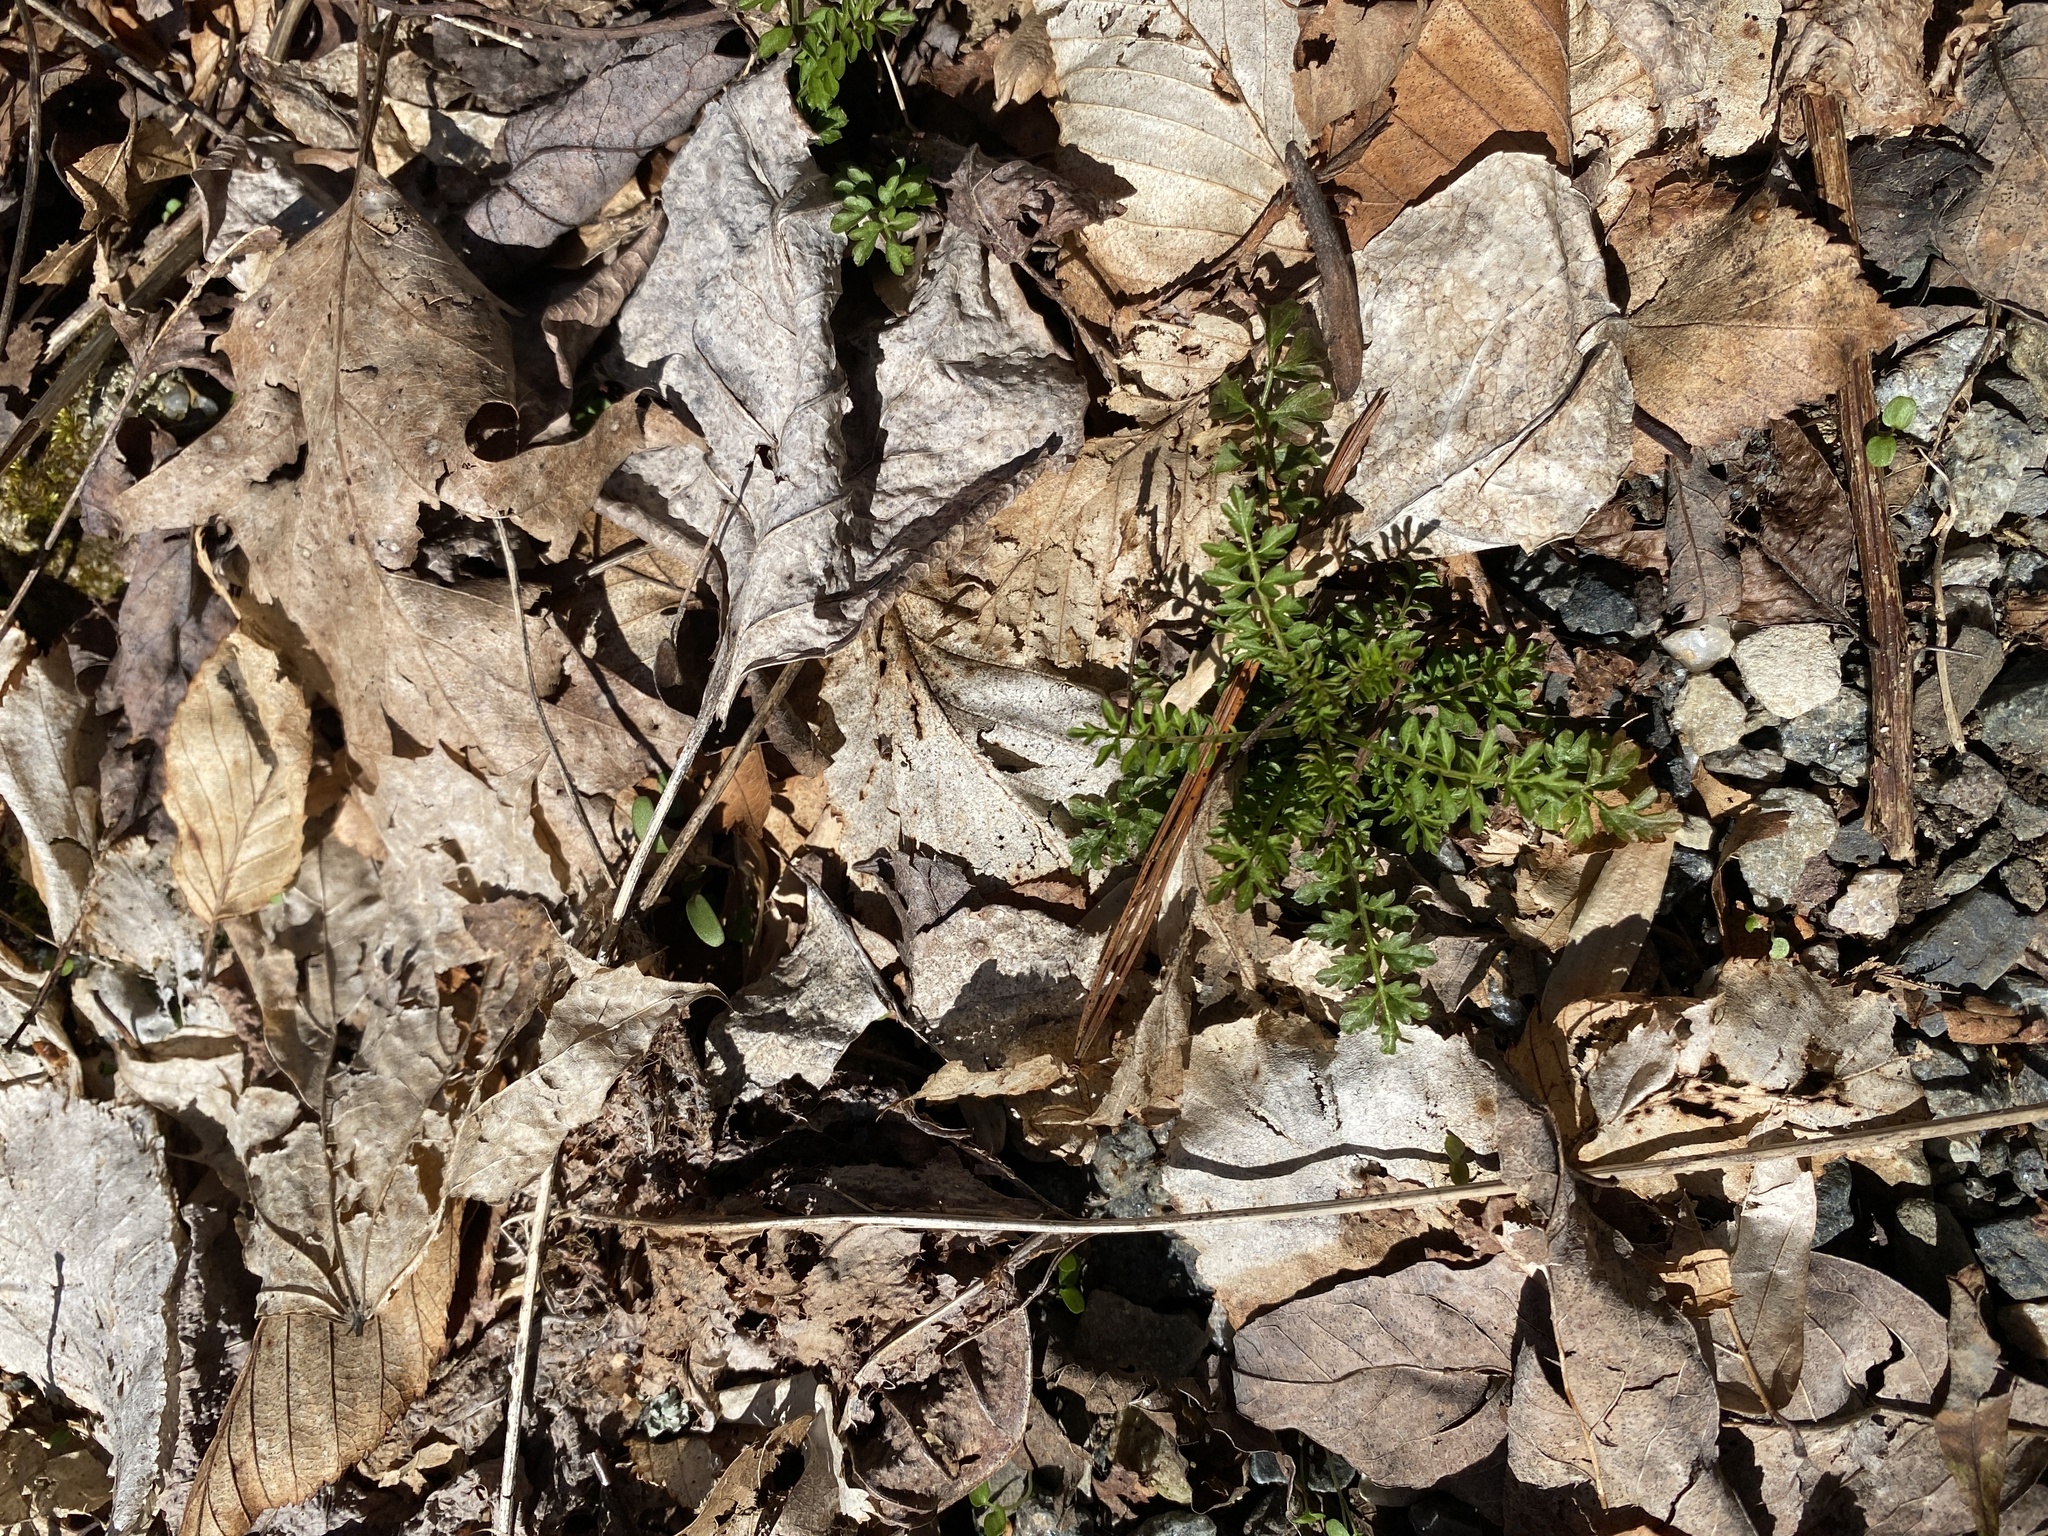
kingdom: Plantae
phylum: Tracheophyta
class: Magnoliopsida
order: Brassicales
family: Brassicaceae
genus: Cardamine
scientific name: Cardamine impatiens
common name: Narrow-leaved bitter-cress
